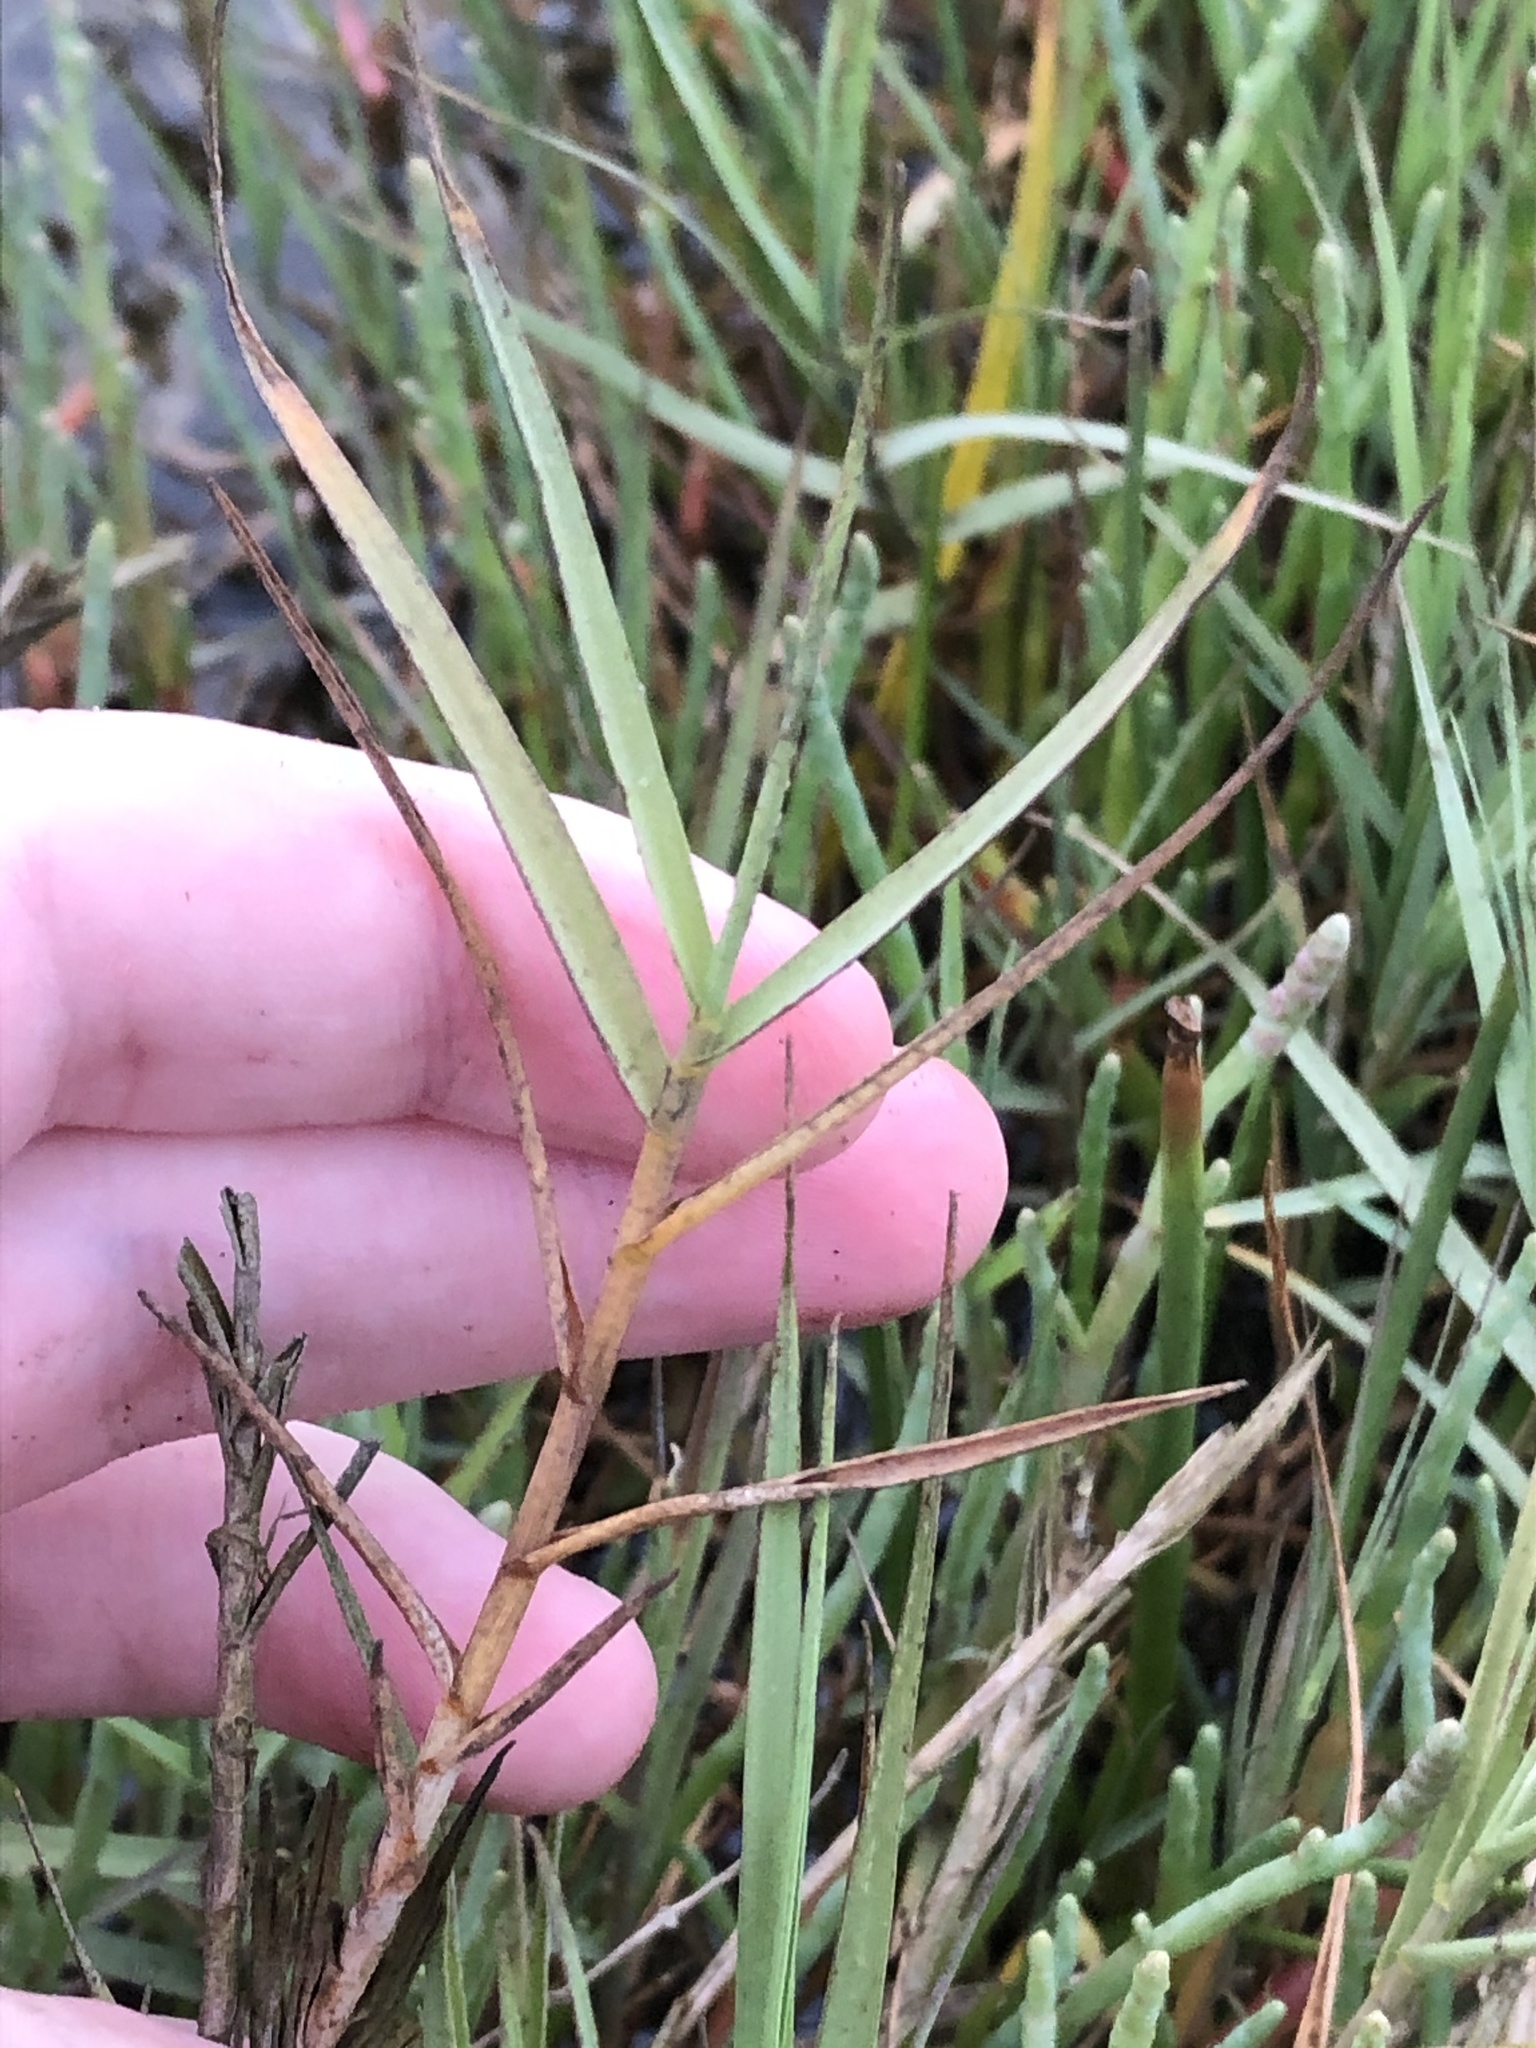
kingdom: Plantae
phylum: Tracheophyta
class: Liliopsida
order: Poales
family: Poaceae
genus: Distichlis
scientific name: Distichlis spicata
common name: Saltgrass
